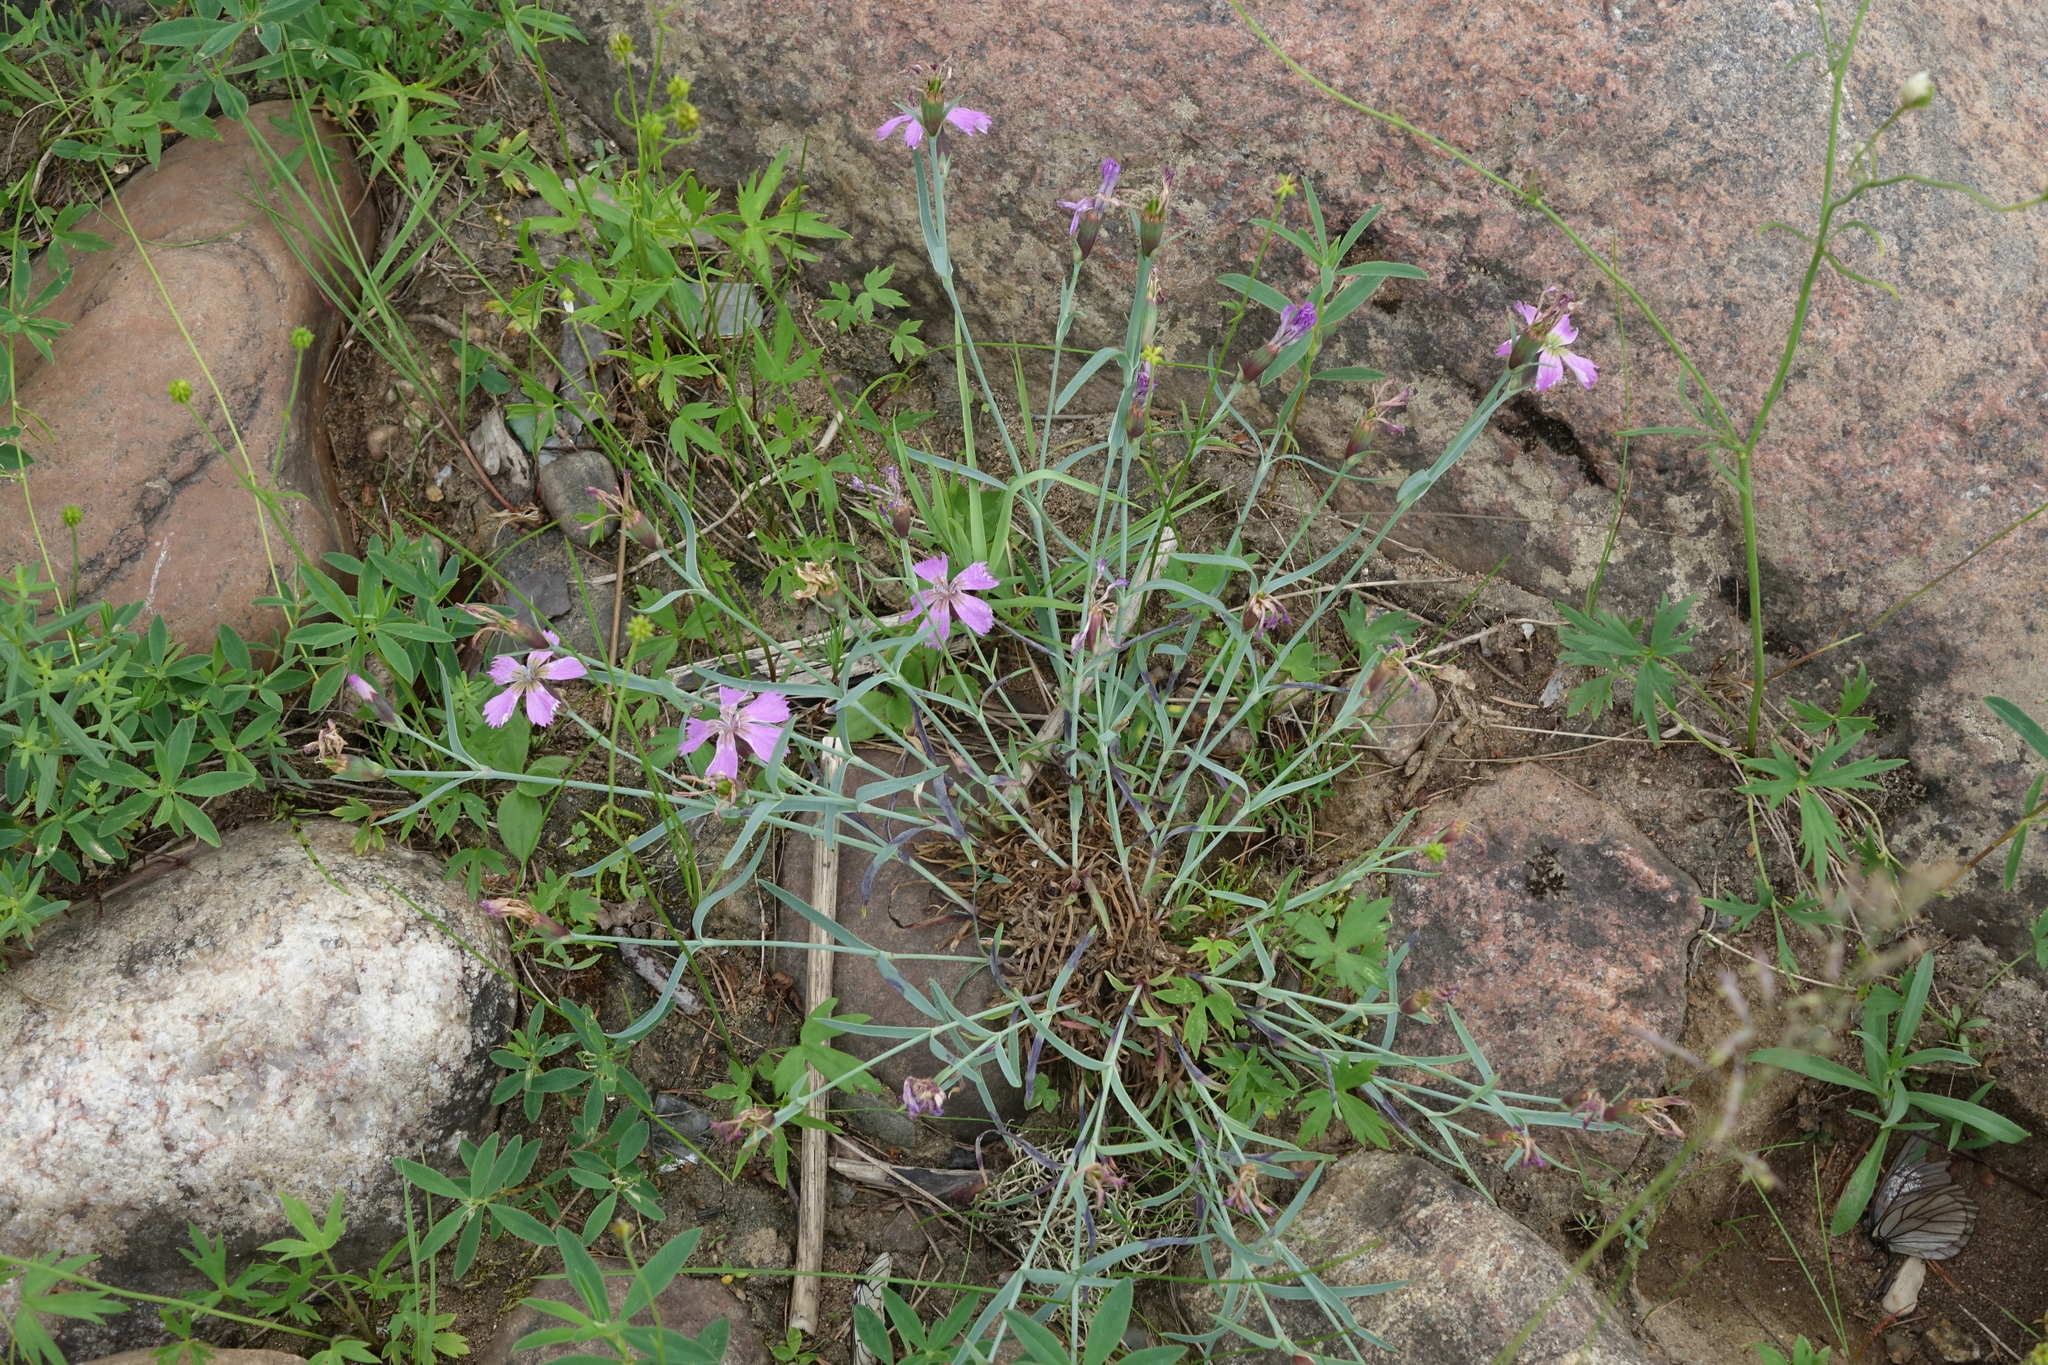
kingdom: Plantae
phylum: Tracheophyta
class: Magnoliopsida
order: Caryophyllales
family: Caryophyllaceae
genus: Dianthus
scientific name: Dianthus repens
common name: Northern pink
